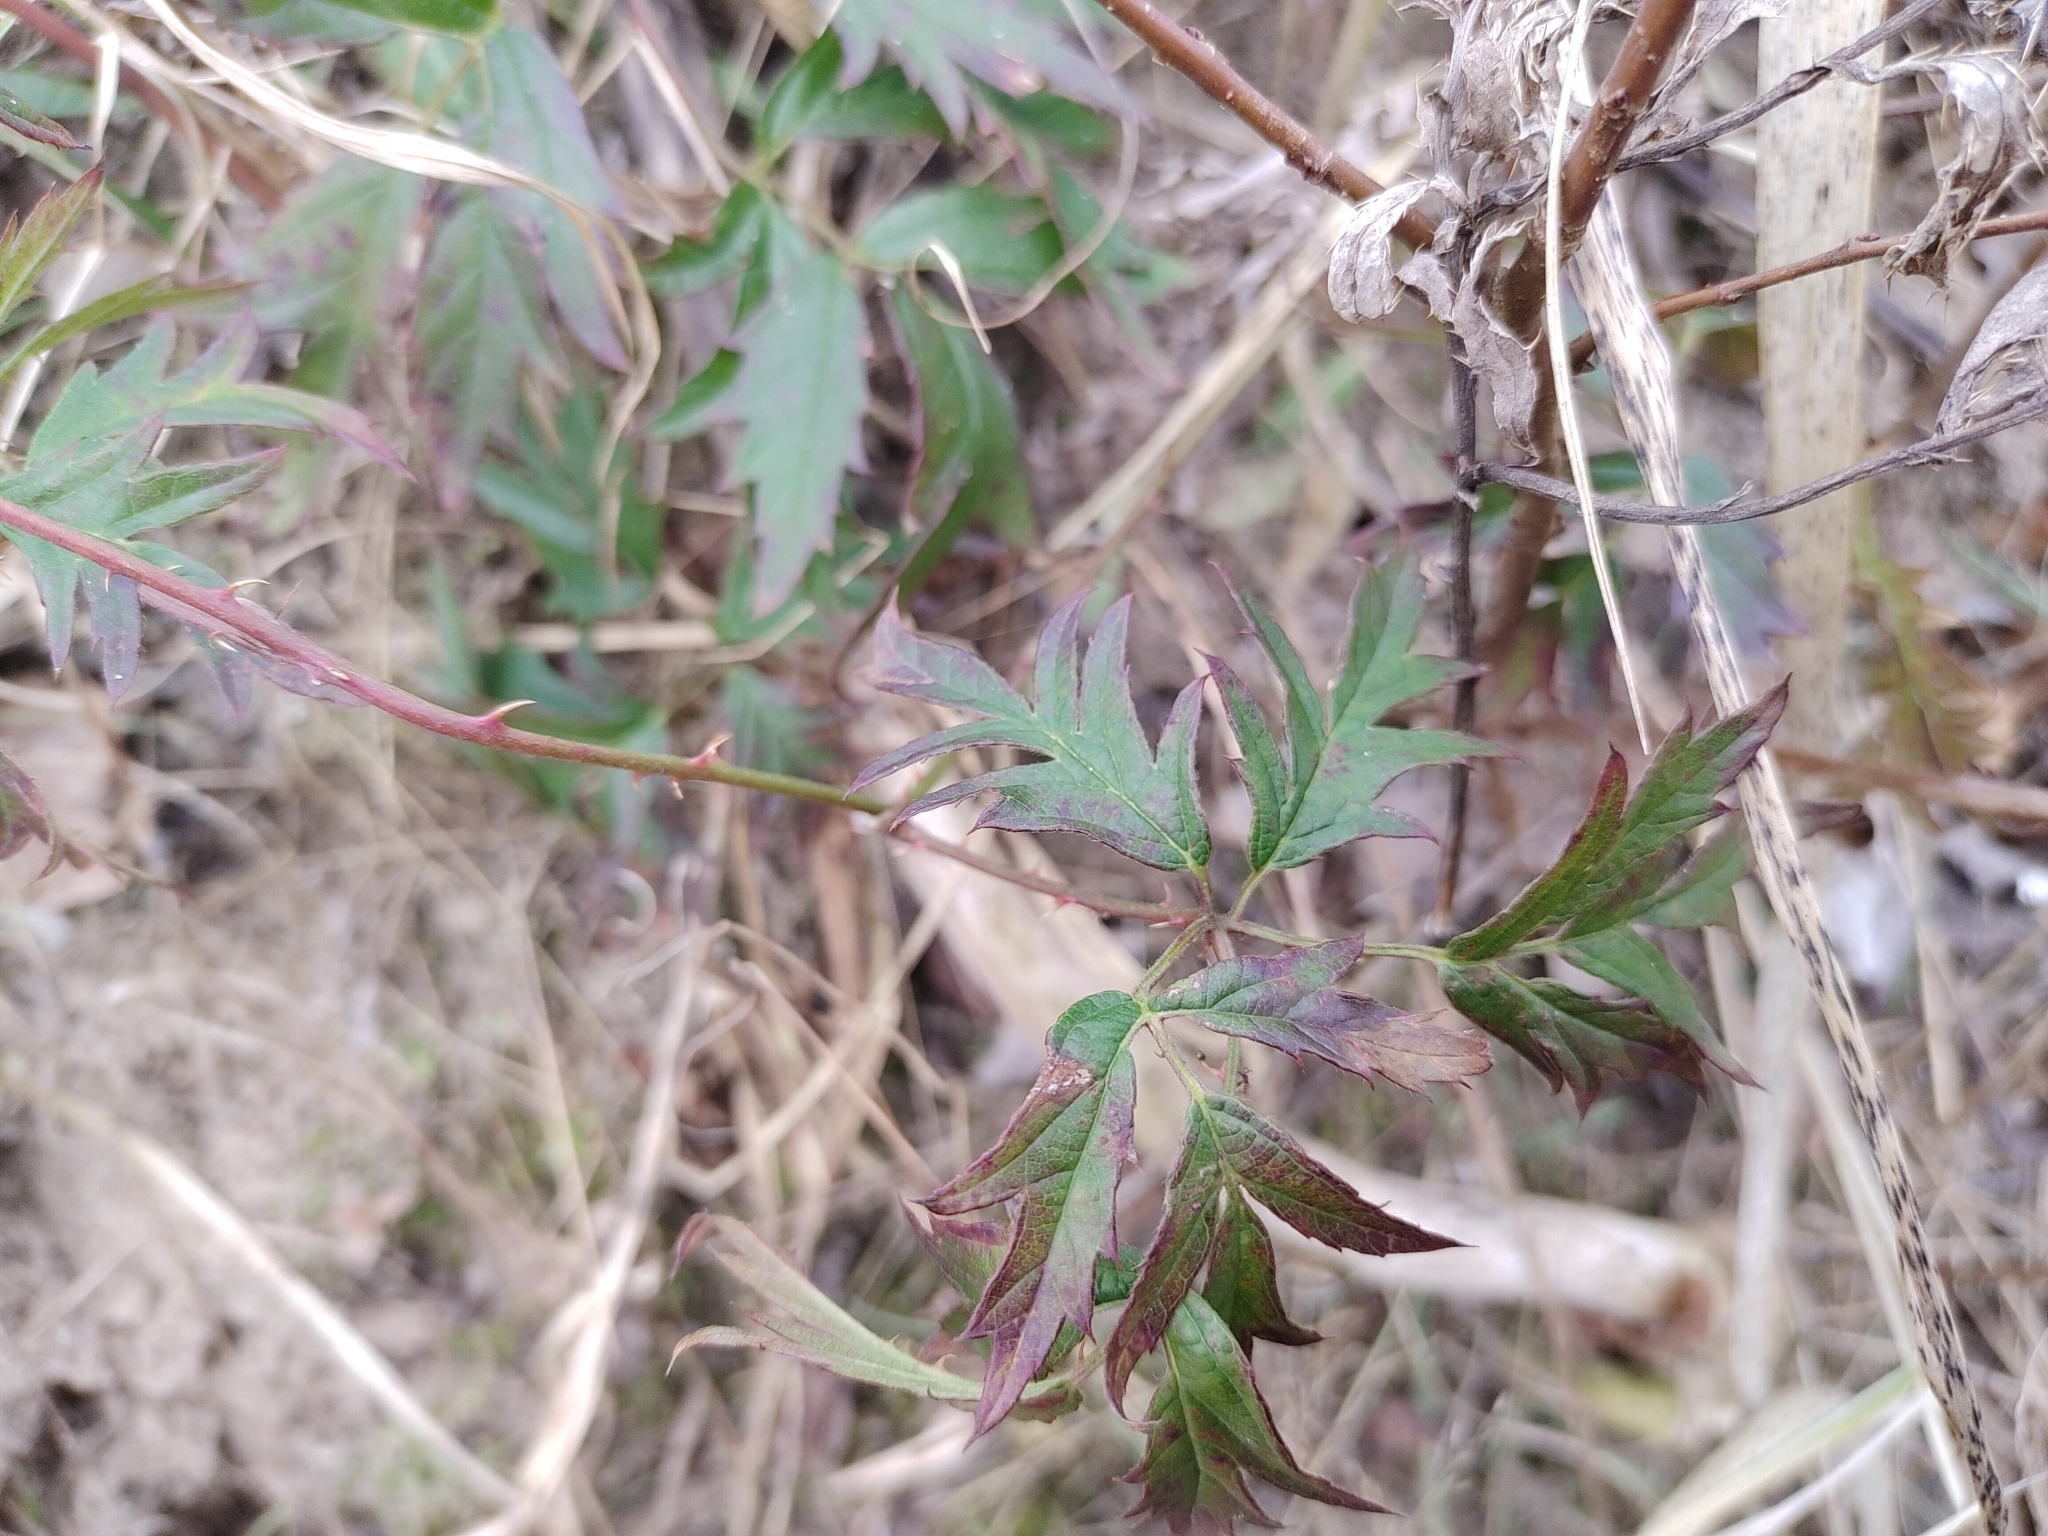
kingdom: Plantae
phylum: Tracheophyta
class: Magnoliopsida
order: Rosales
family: Rosaceae
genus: Rubus
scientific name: Rubus laciniatus
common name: Evergreen blackberry
